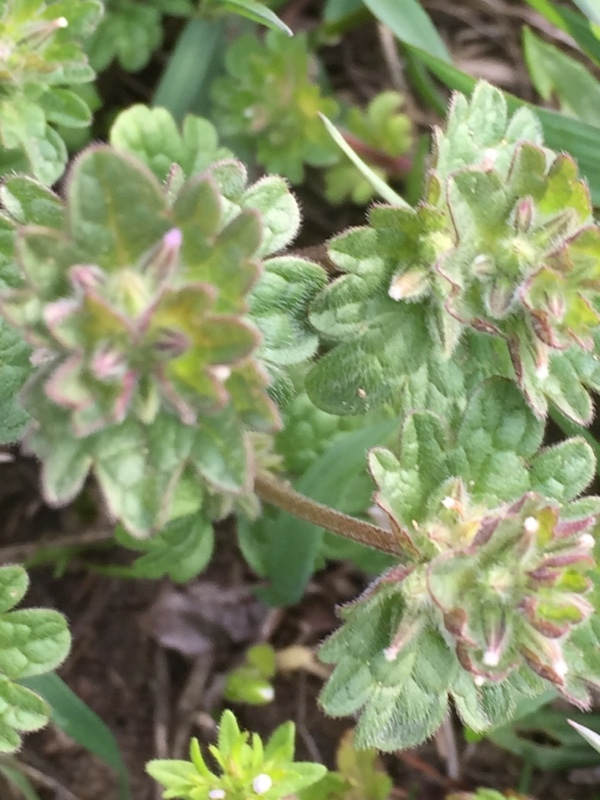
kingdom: Plantae
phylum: Tracheophyta
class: Magnoliopsida
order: Lamiales
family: Lamiaceae
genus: Lamium
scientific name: Lamium amplexicaule
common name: Henbit dead-nettle
